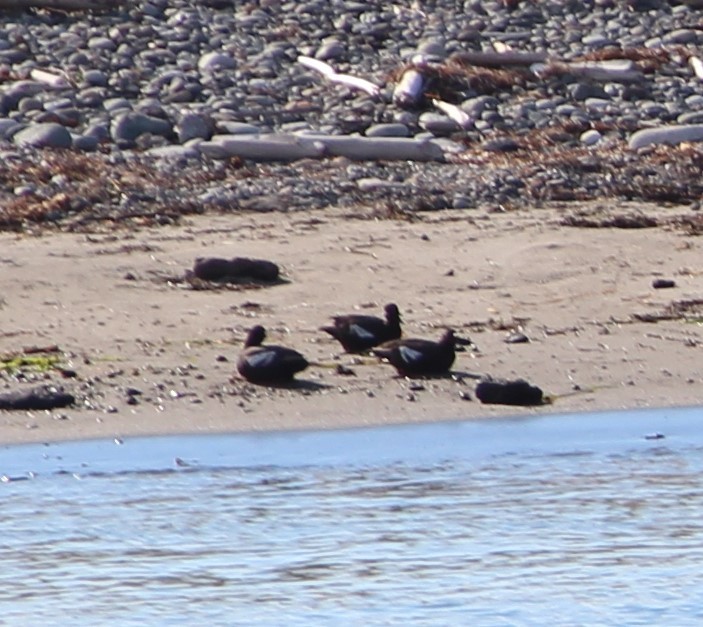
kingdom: Animalia
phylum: Chordata
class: Aves
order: Charadriiformes
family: Alcidae
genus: Cepphus
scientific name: Cepphus columba
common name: Pigeon guillemot
